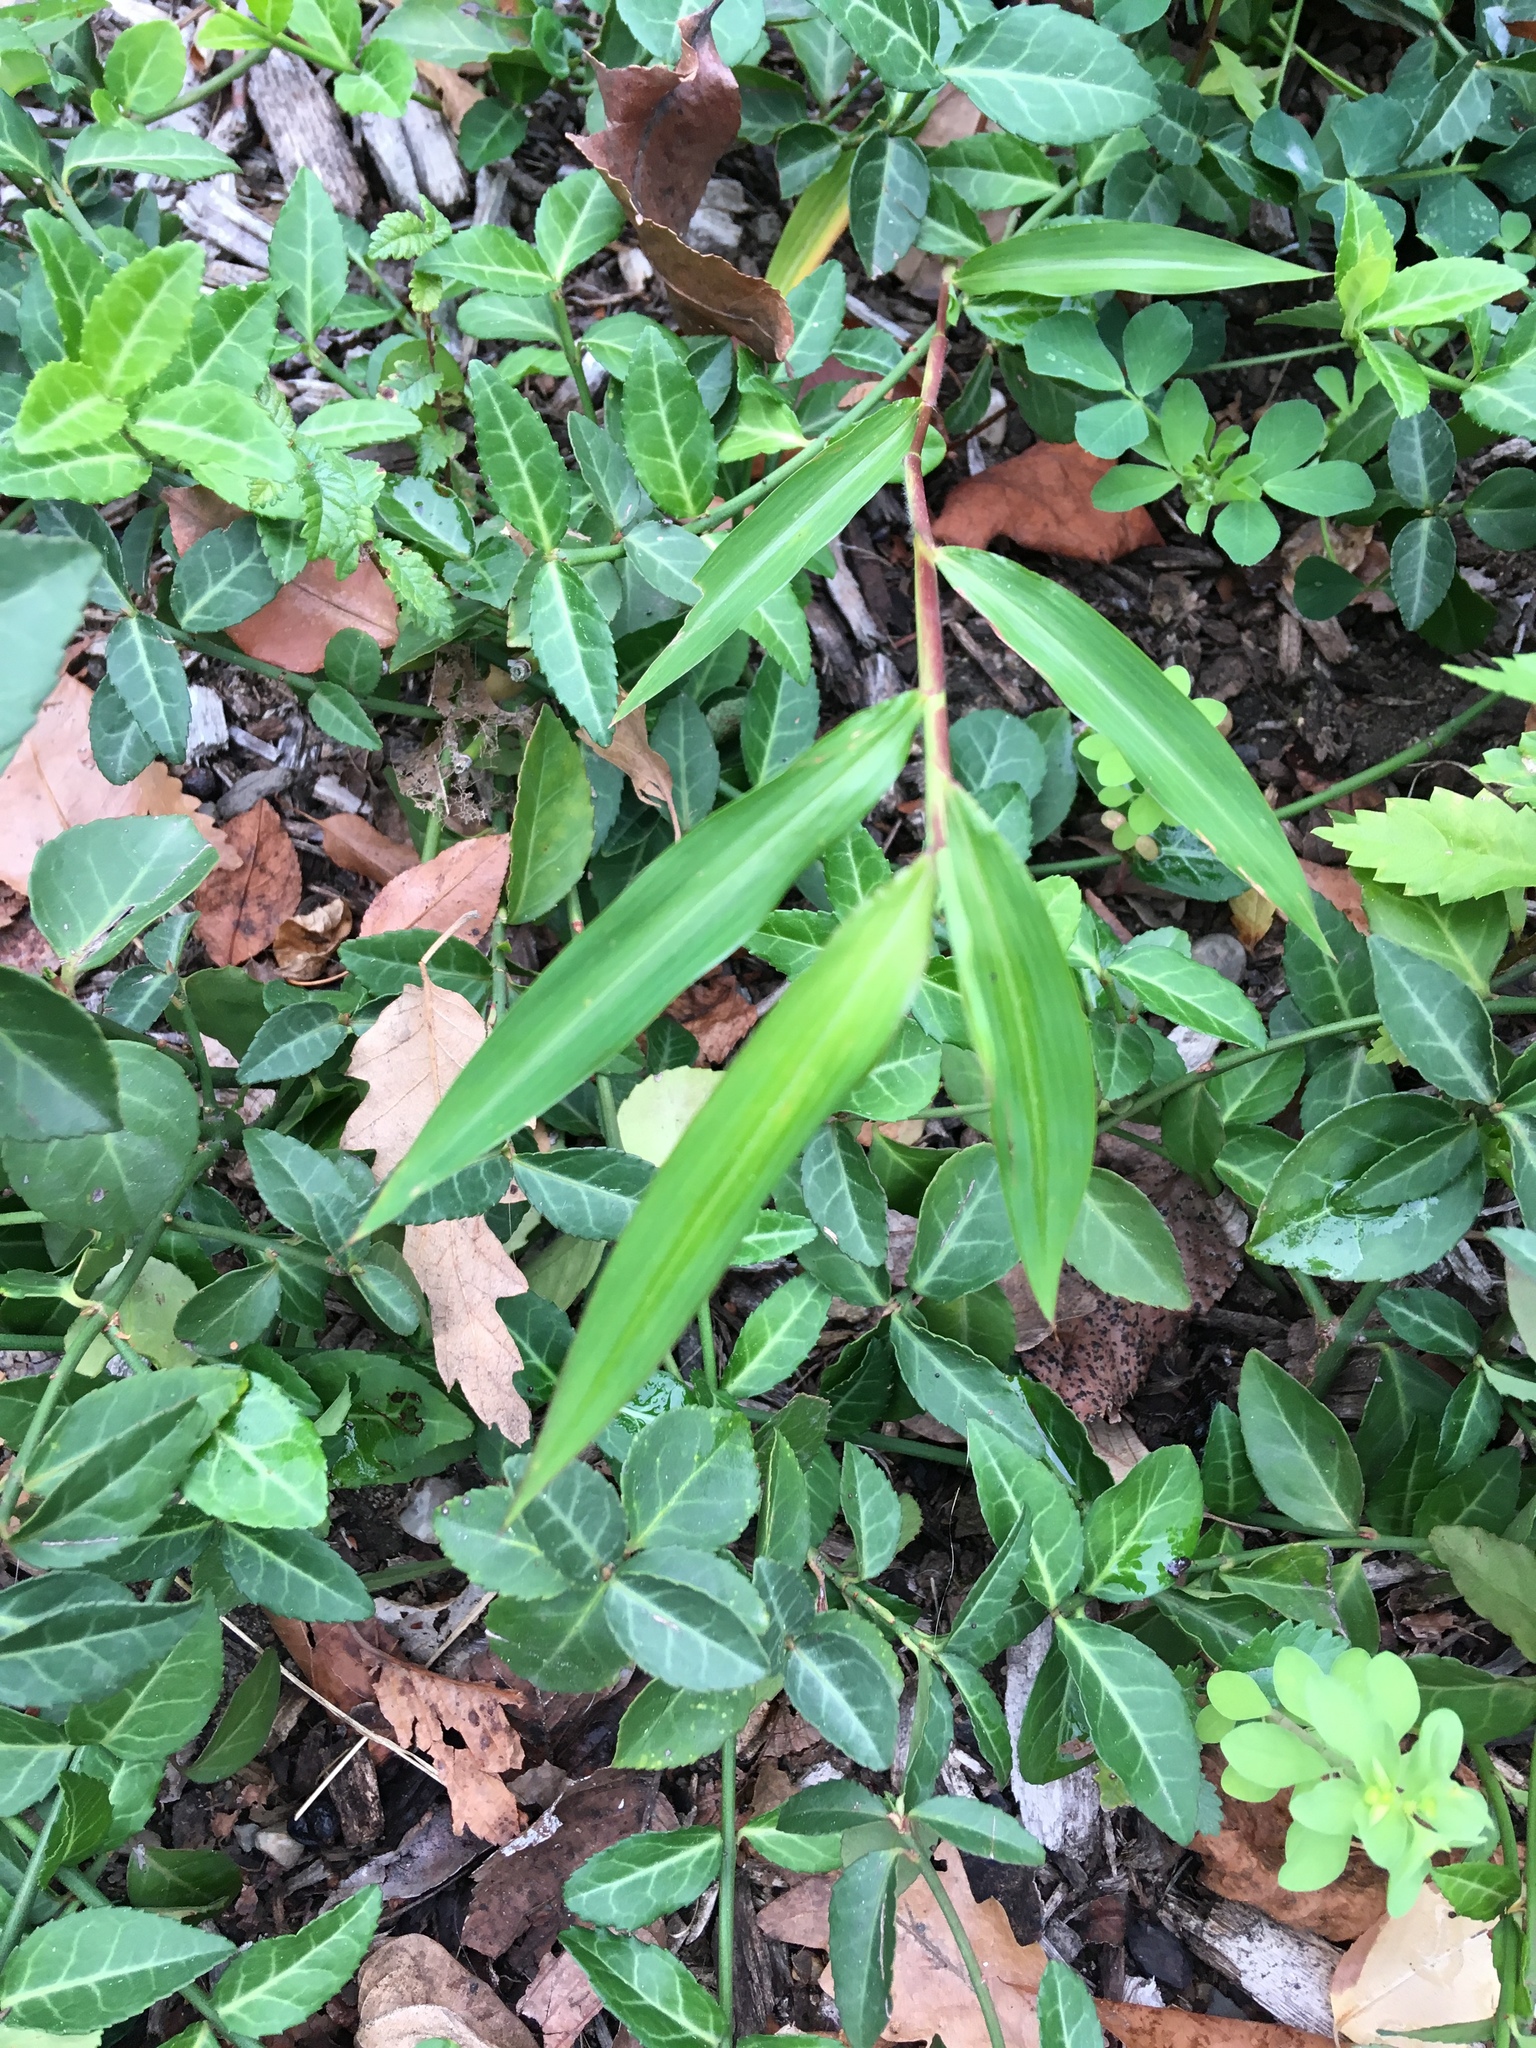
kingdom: Plantae
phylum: Tracheophyta
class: Liliopsida
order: Poales
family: Poaceae
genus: Microstegium
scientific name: Microstegium vimineum
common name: Japanese stiltgrass
